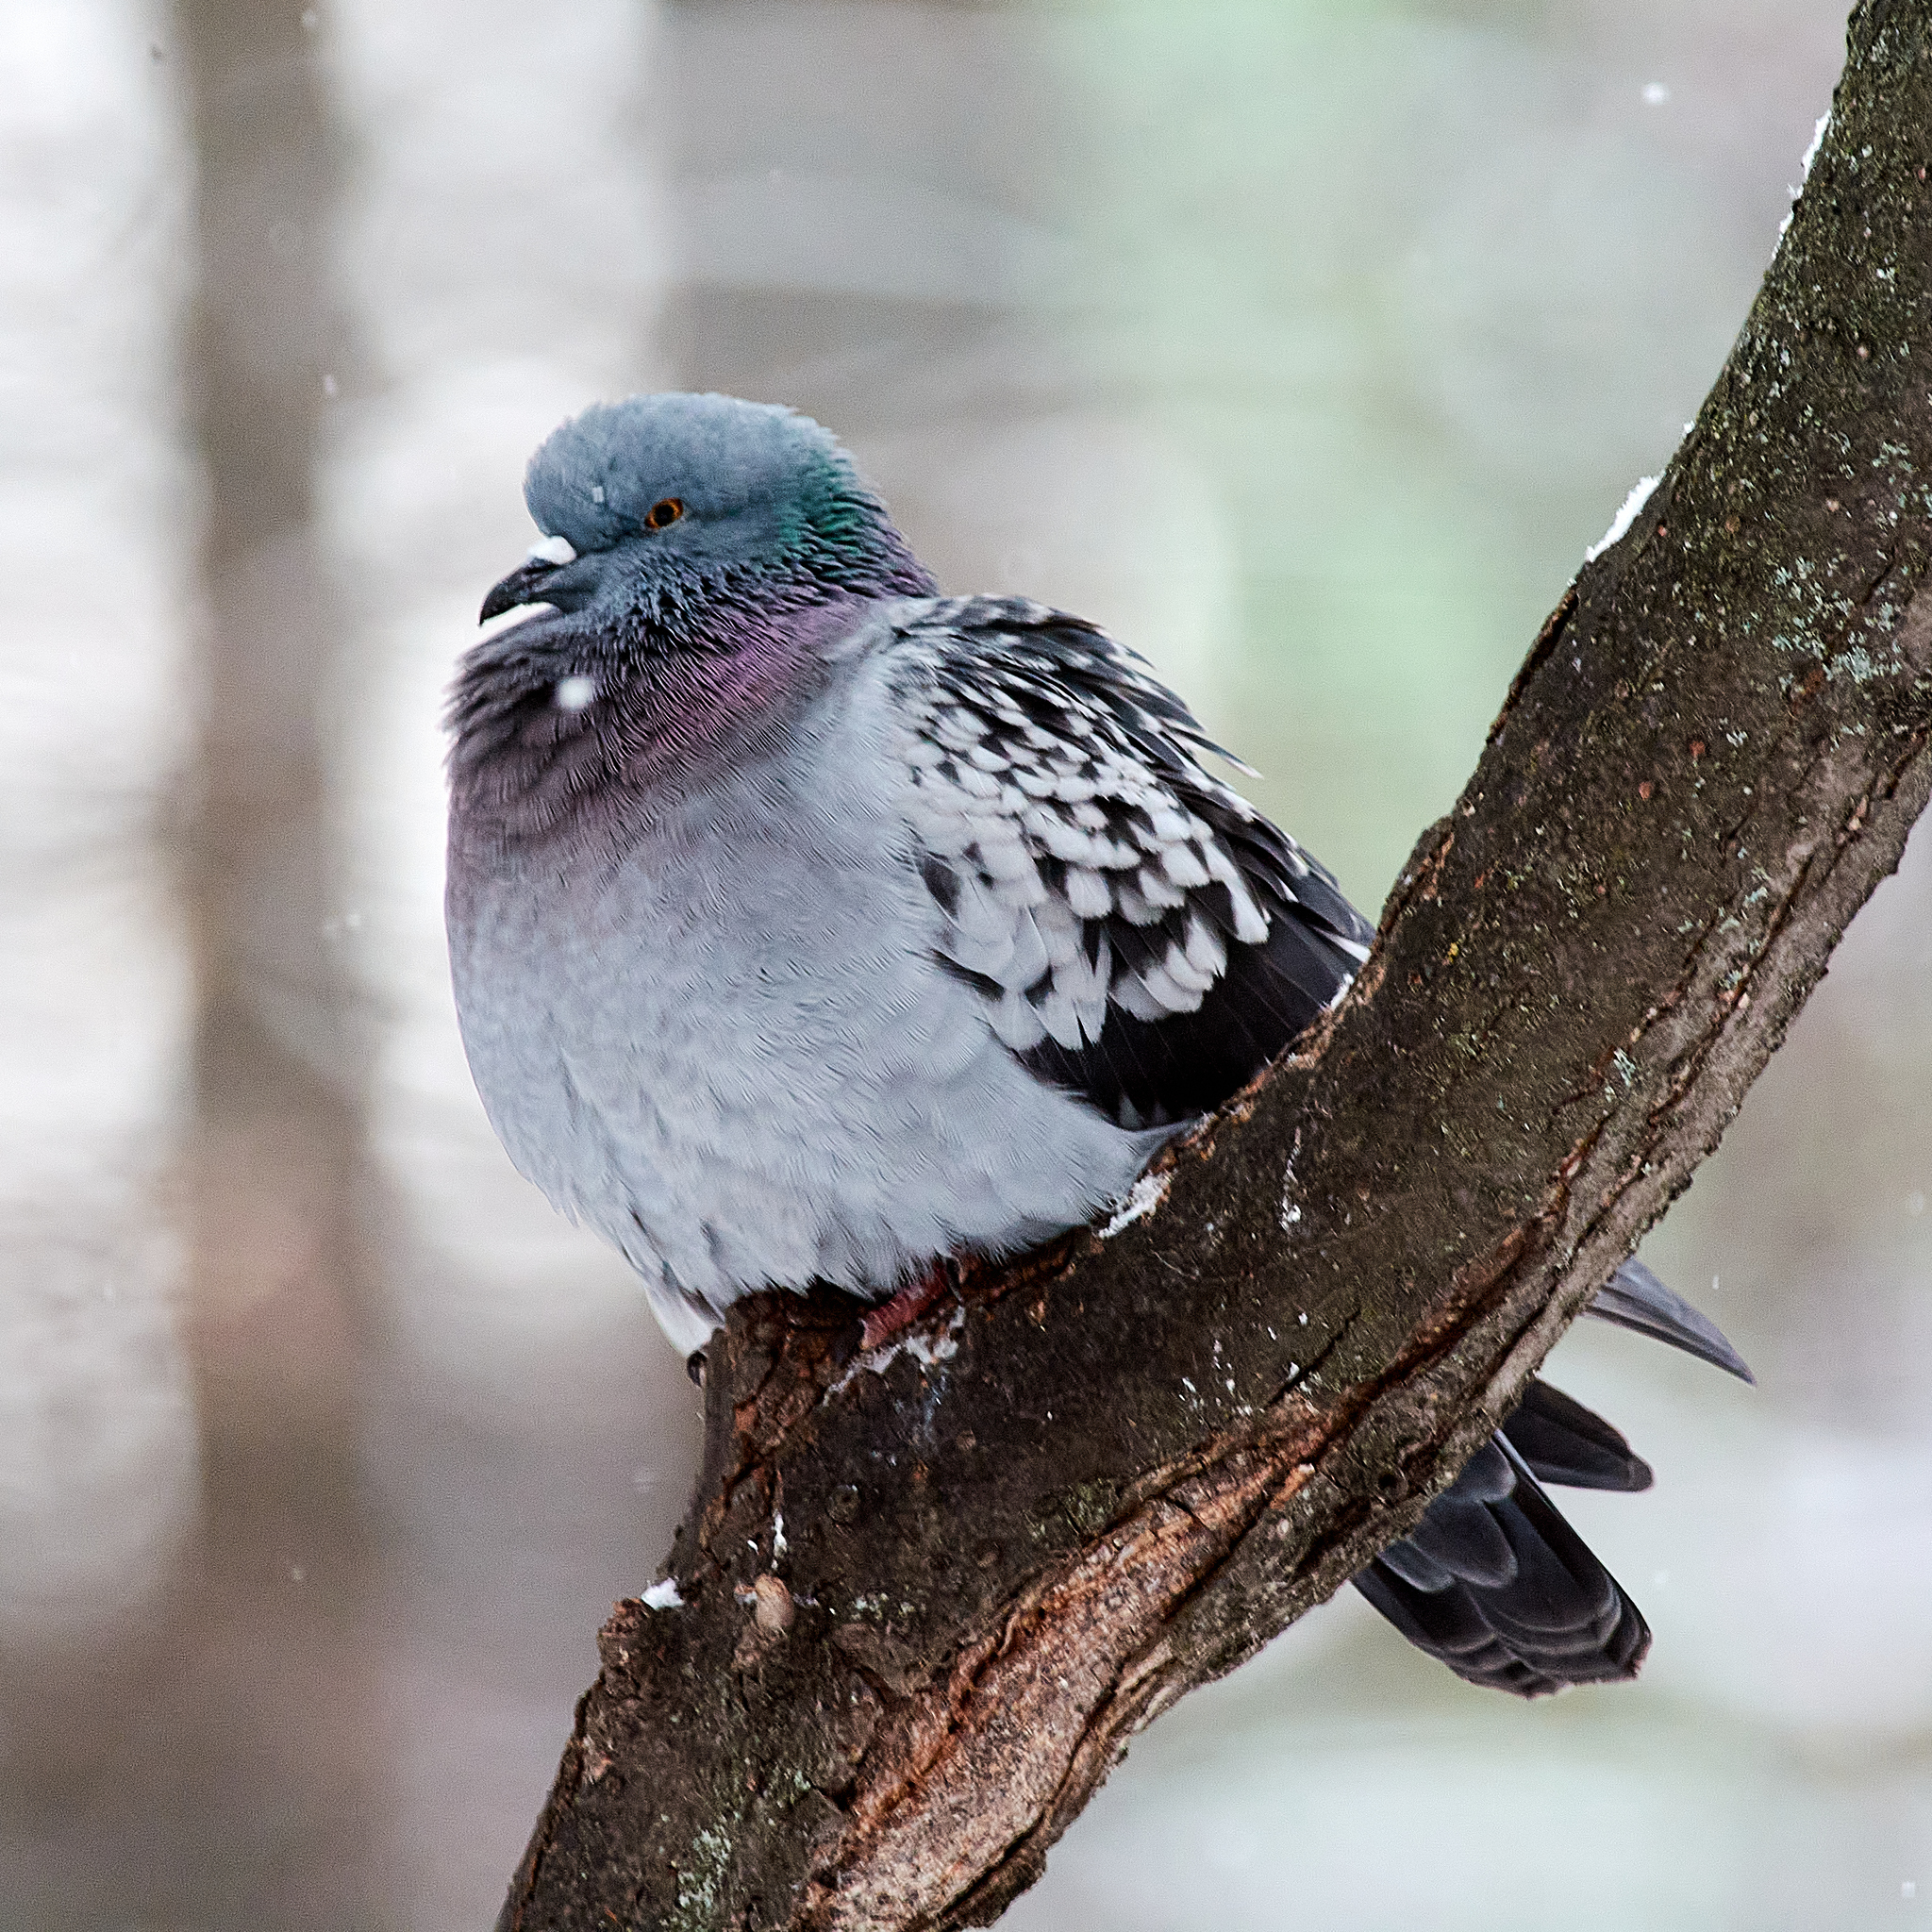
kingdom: Animalia
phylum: Chordata
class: Aves
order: Columbiformes
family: Columbidae
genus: Columba
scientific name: Columba livia
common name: Rock pigeon
